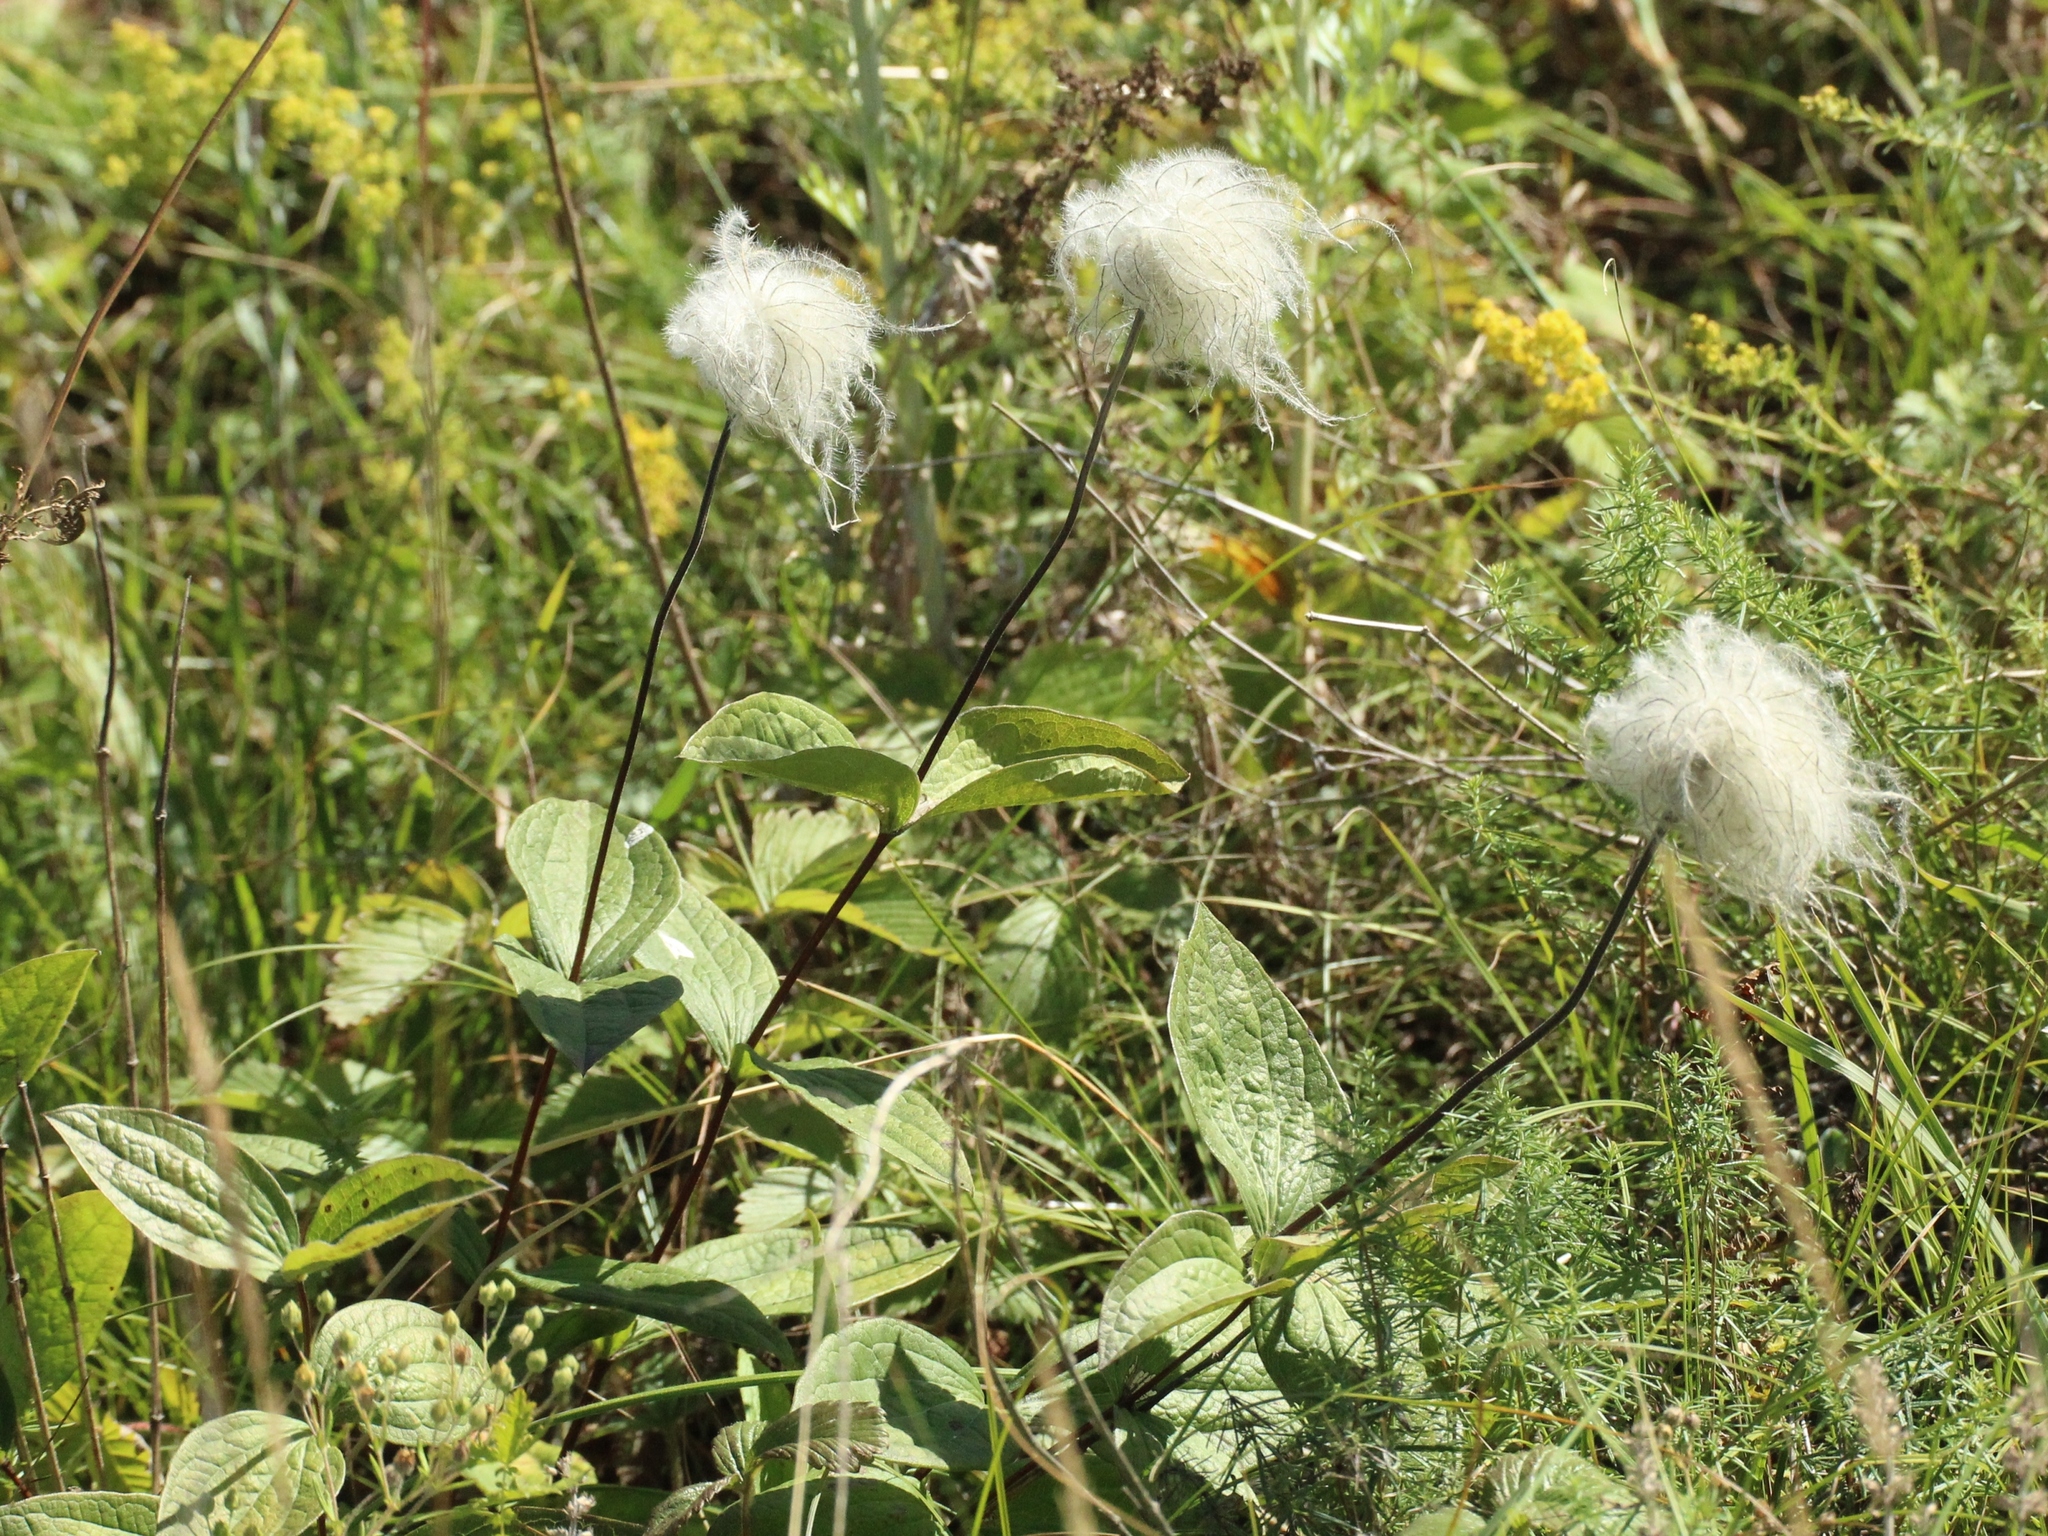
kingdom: Plantae
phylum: Tracheophyta
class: Magnoliopsida
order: Ranunculales
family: Ranunculaceae
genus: Clematis
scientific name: Clematis integrifolia
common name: Solitary clematis
